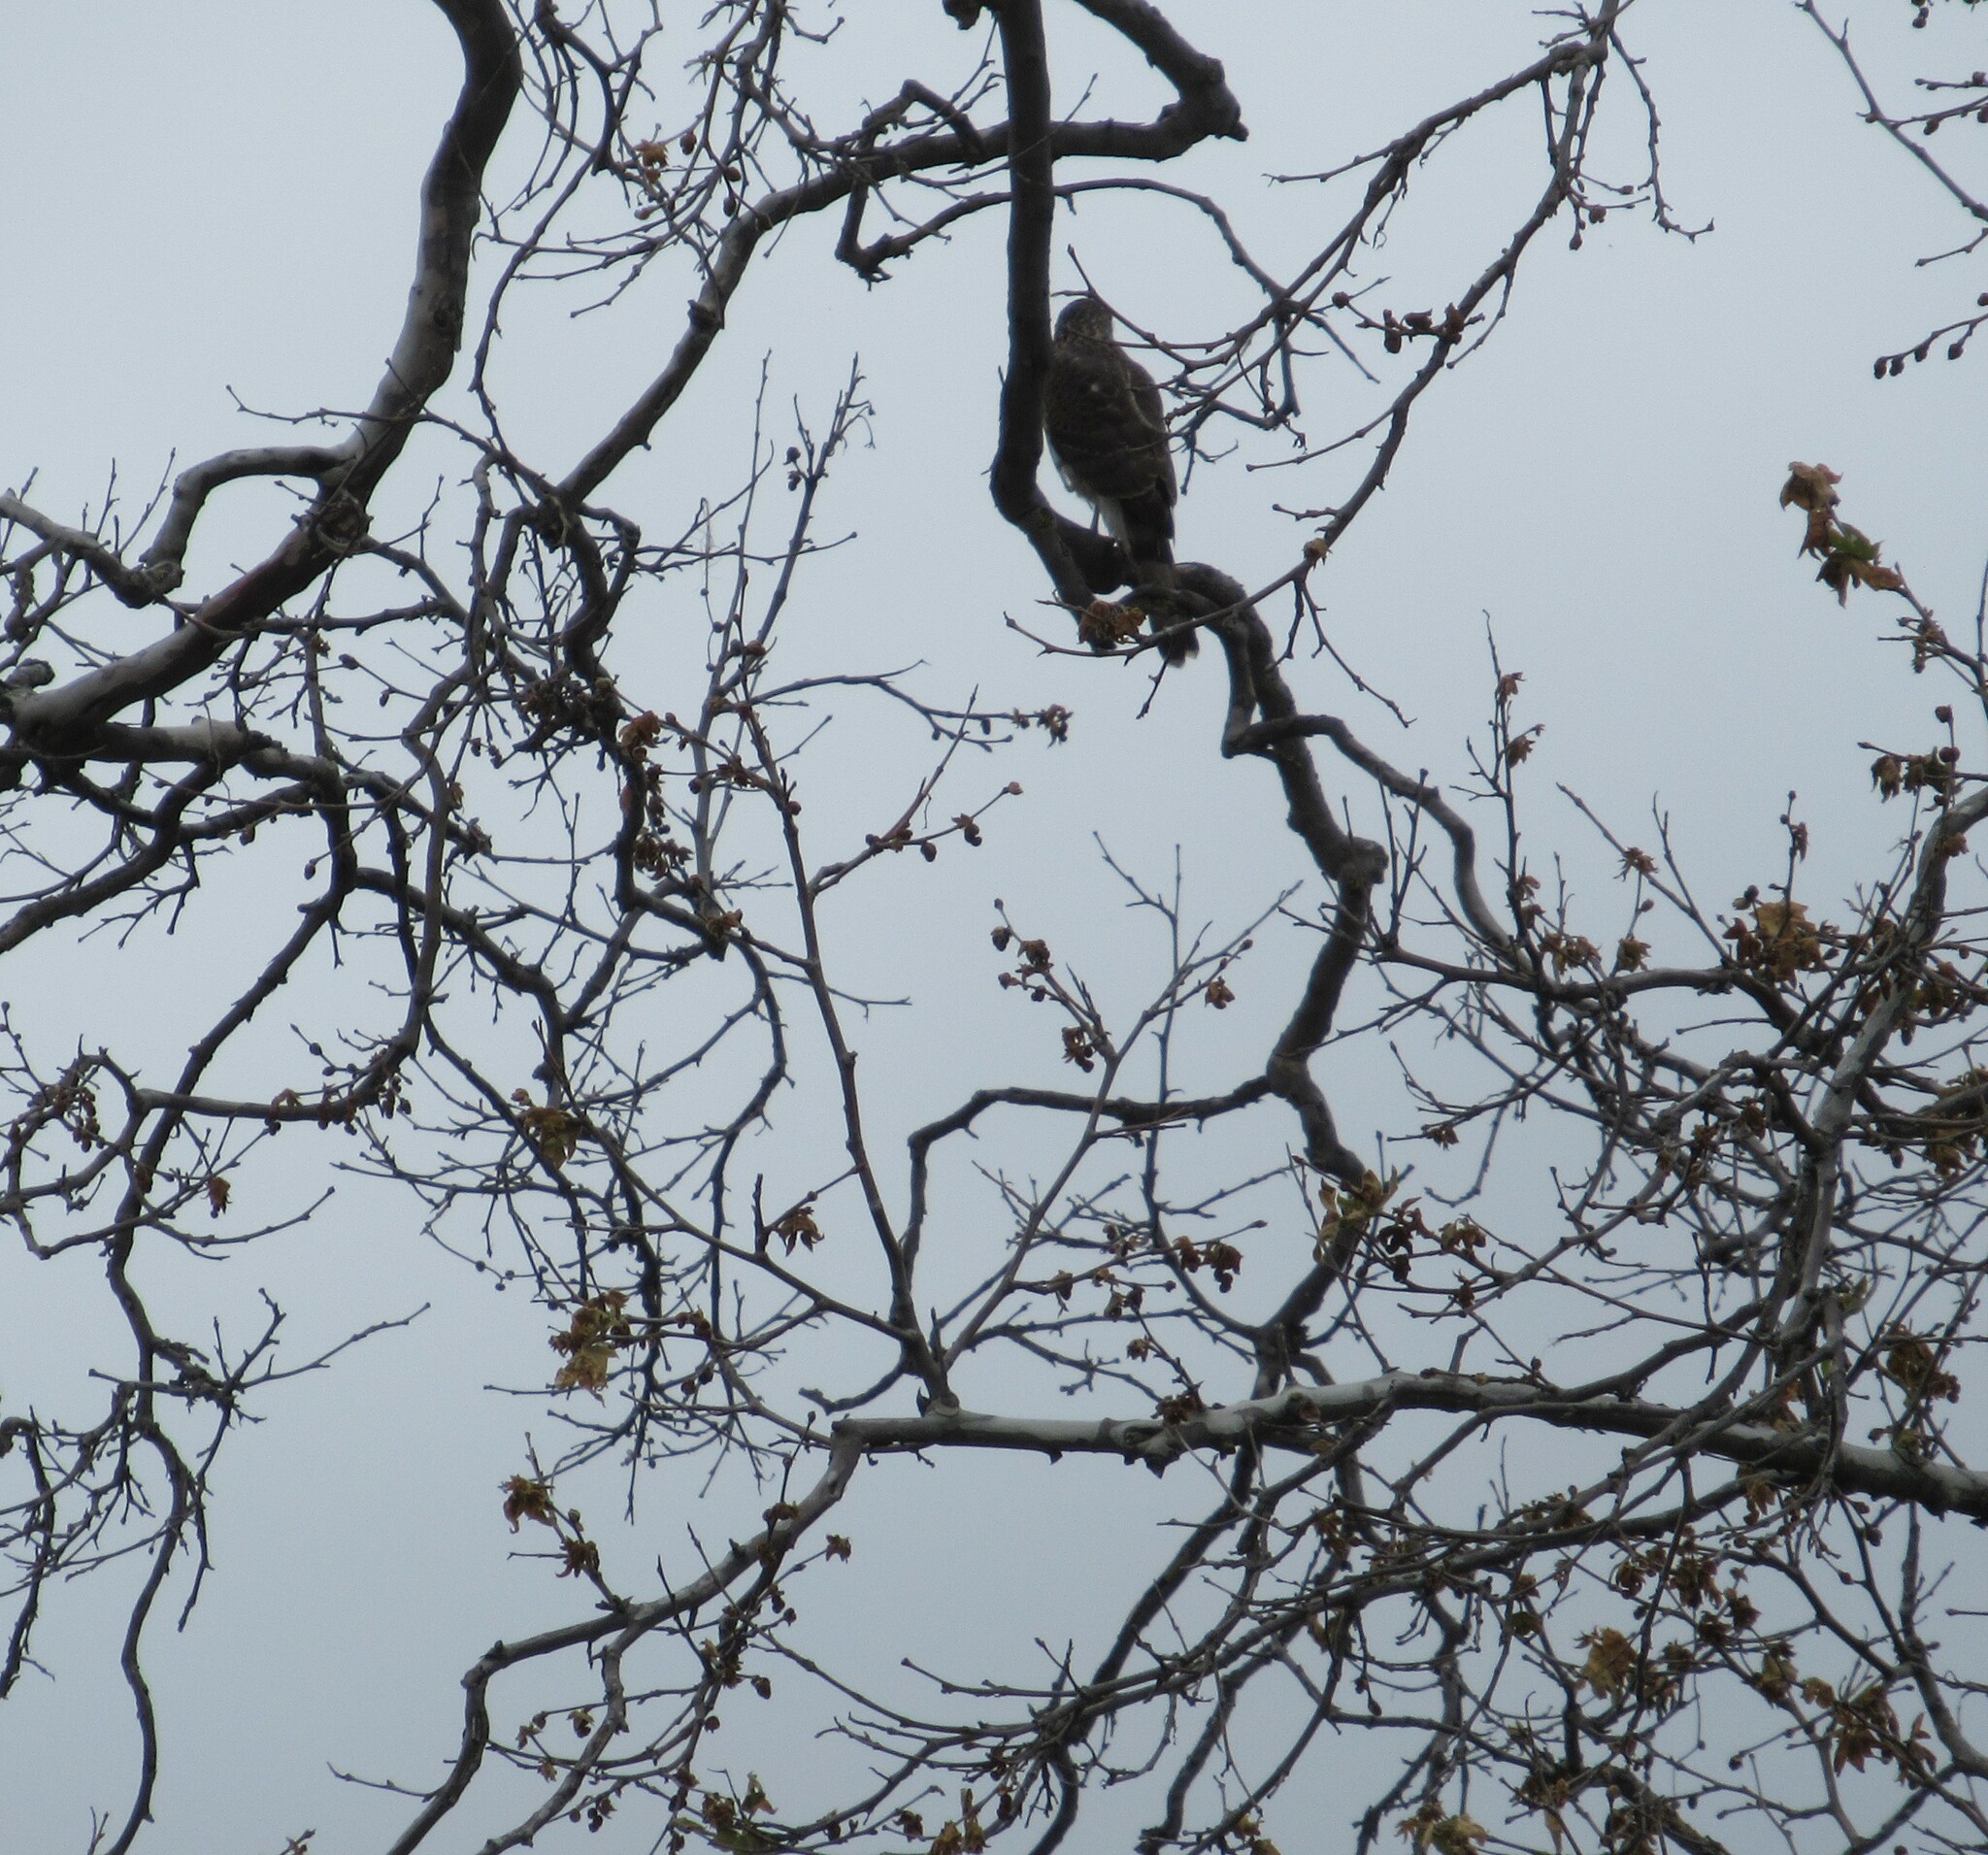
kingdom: Animalia
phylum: Chordata
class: Aves
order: Accipitriformes
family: Accipitridae
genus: Accipiter
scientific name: Accipiter cooperii
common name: Cooper's hawk
